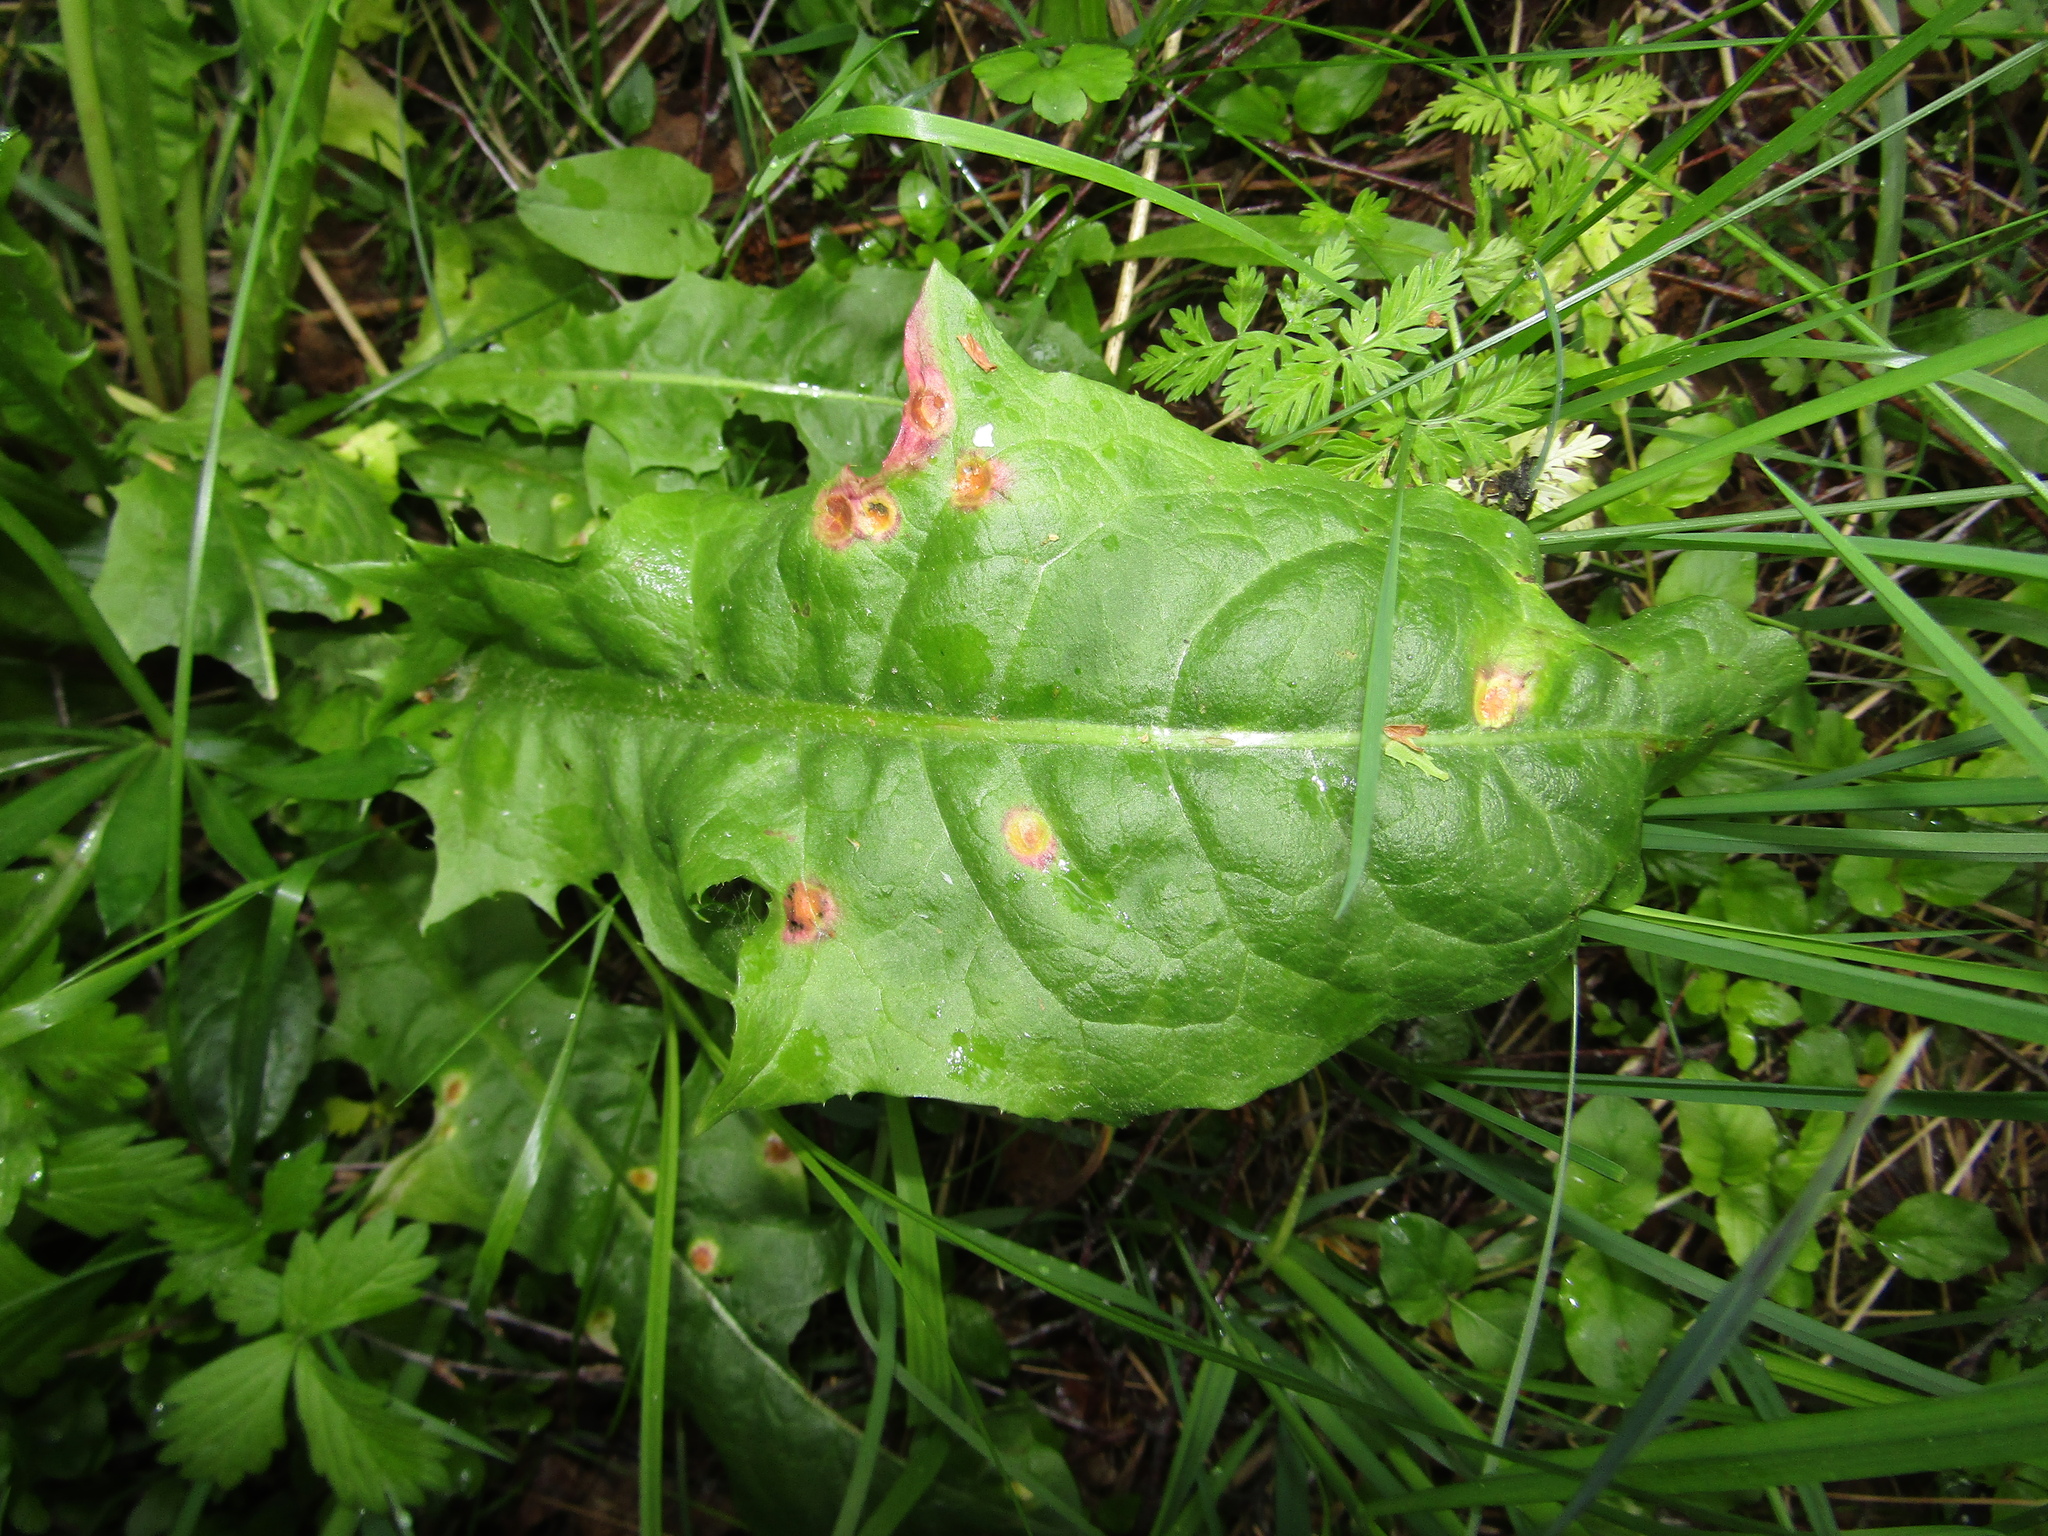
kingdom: Fungi
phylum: Basidiomycota
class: Pucciniomycetes
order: Pucciniales
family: Pucciniaceae
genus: Puccinia
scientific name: Puccinia dioicae
